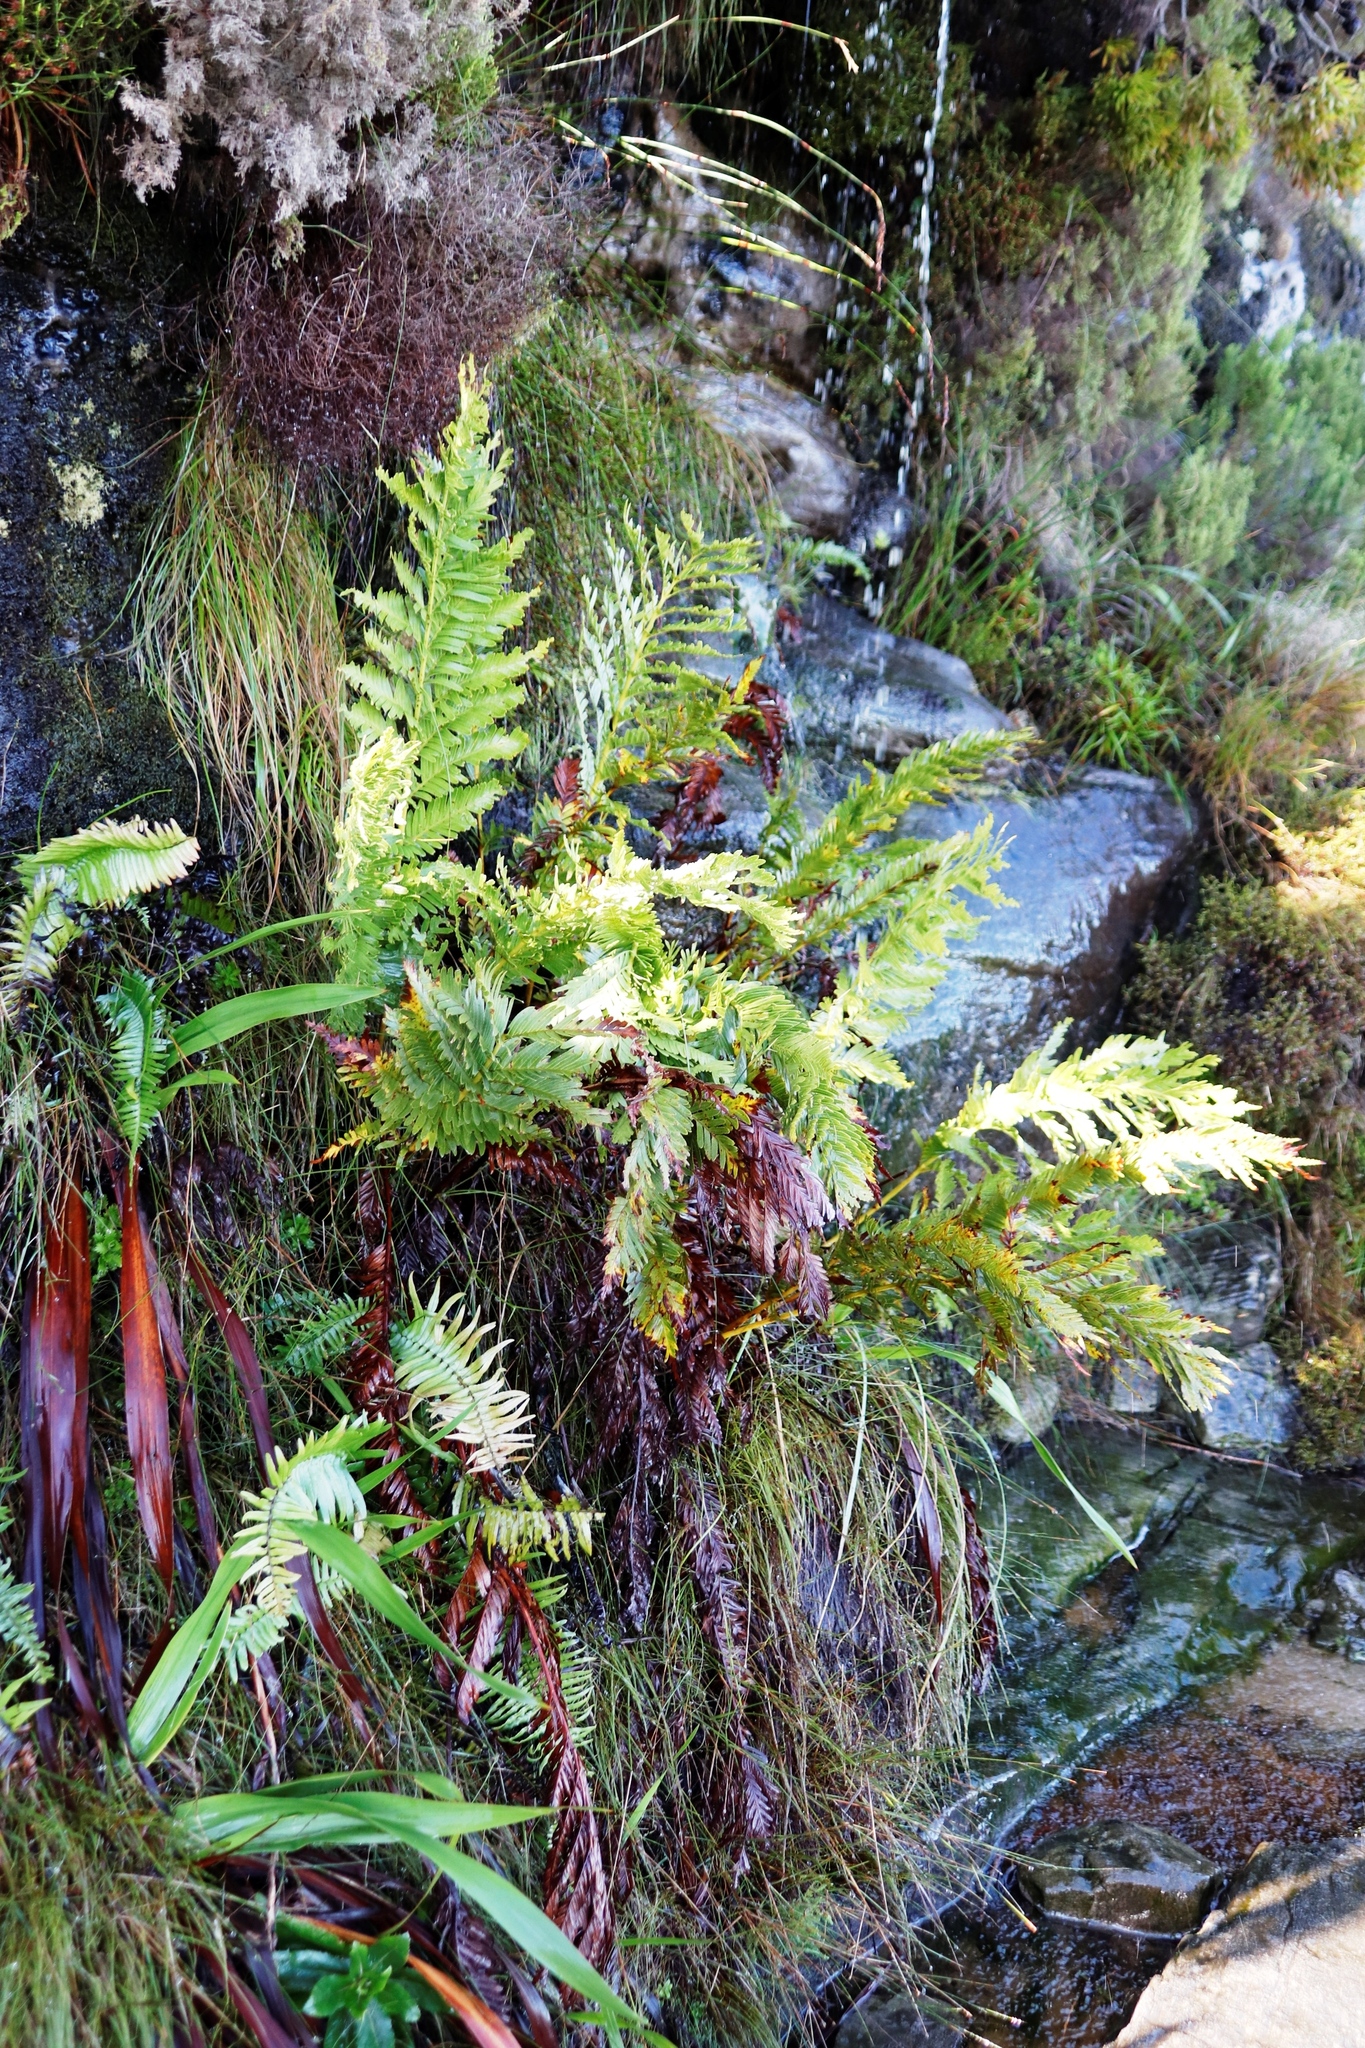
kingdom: Plantae
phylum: Tracheophyta
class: Polypodiopsida
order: Osmundales
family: Osmundaceae
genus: Todea
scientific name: Todea barbara
